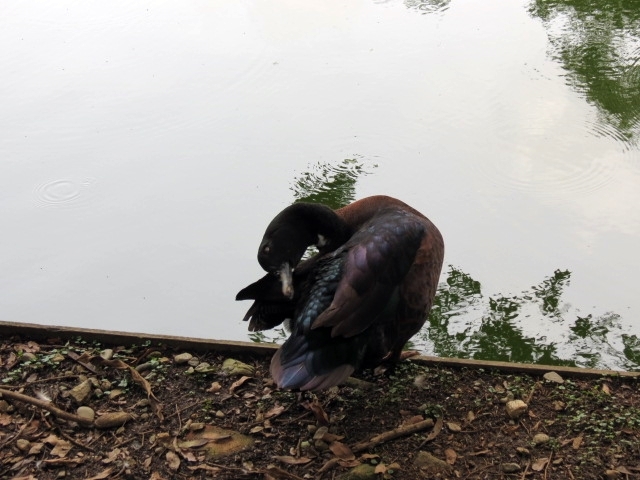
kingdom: Animalia
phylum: Chordata
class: Aves
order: Anseriformes
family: Anatidae
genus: Cairina
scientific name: Cairina moschata
